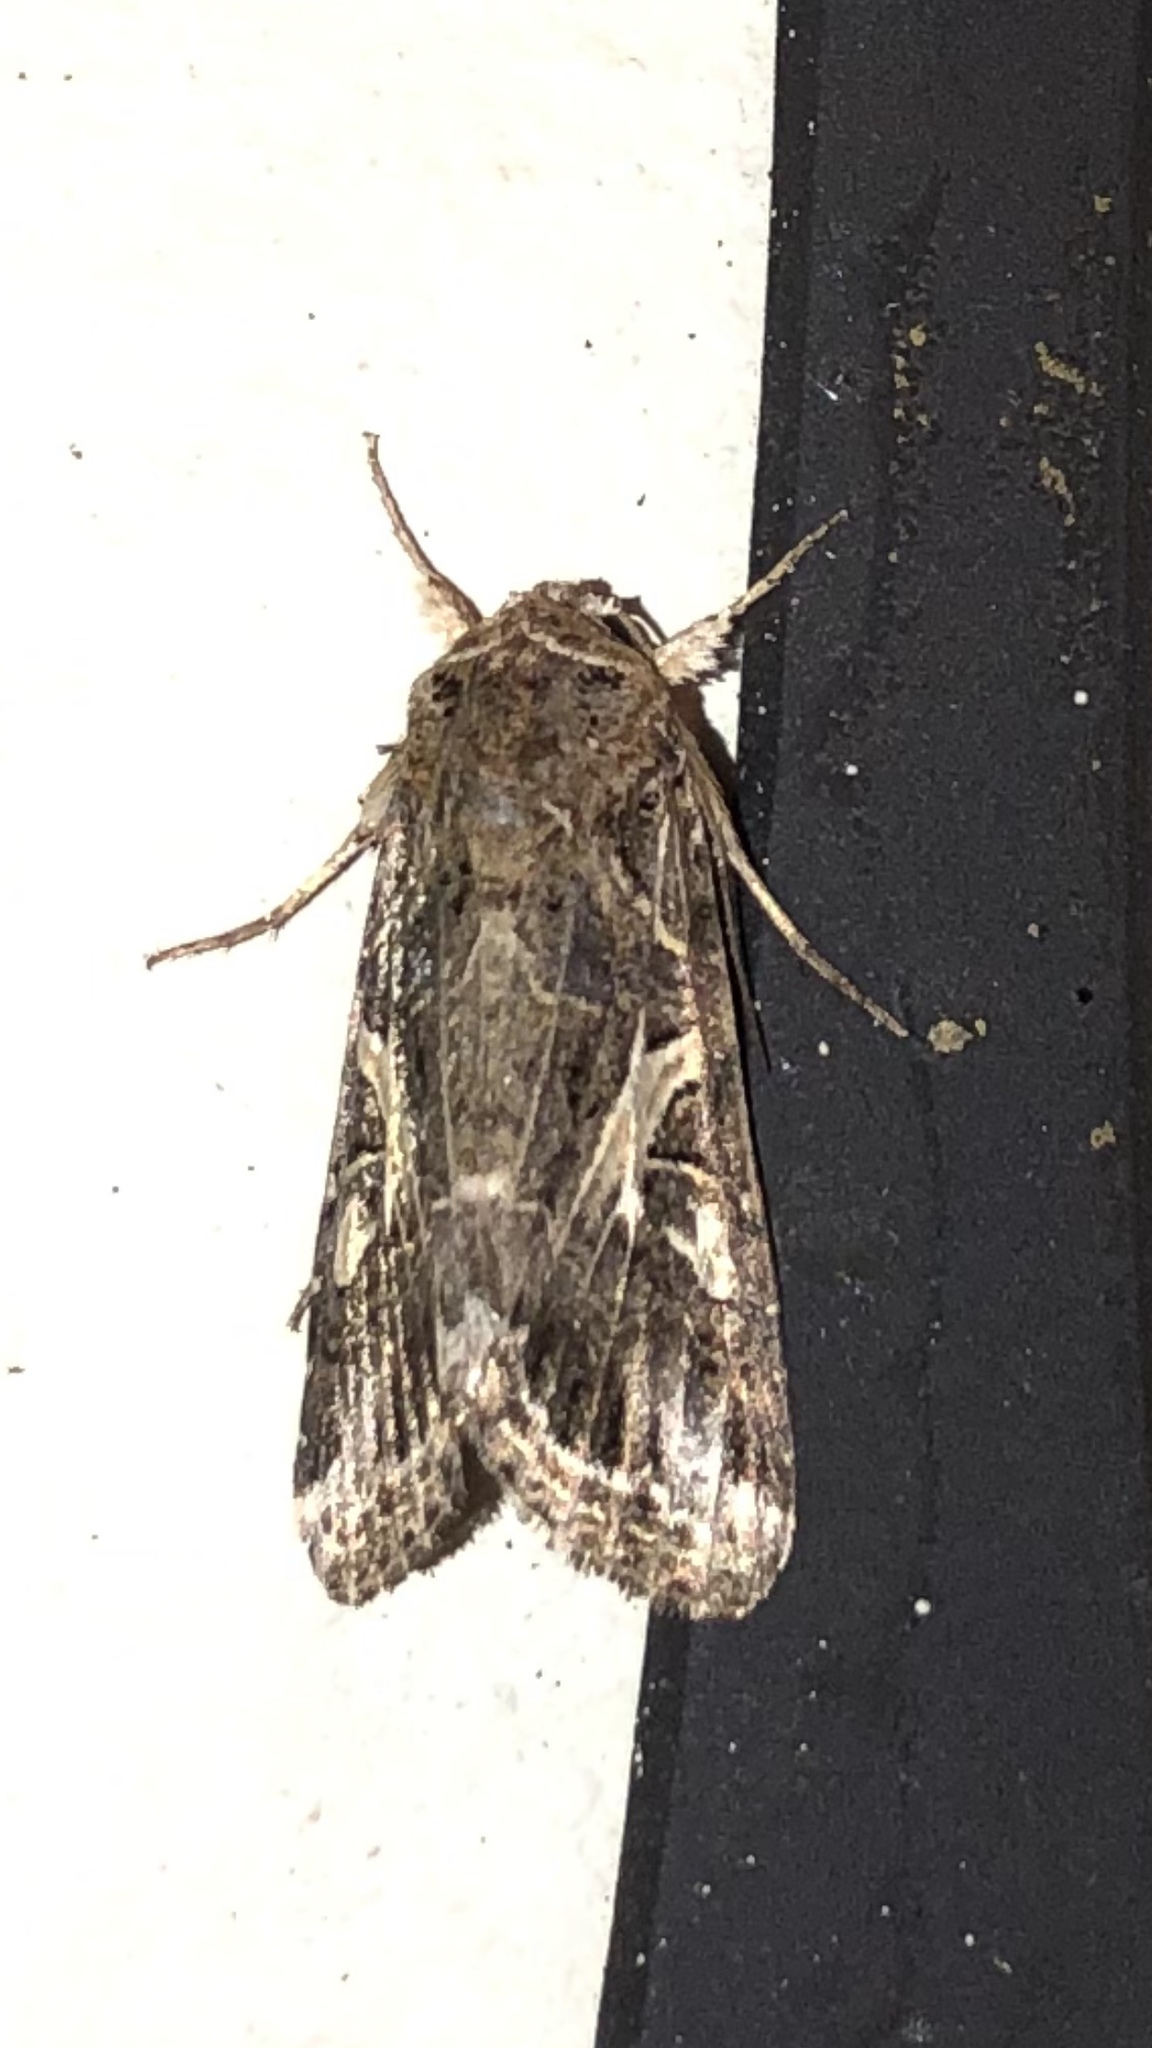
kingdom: Animalia
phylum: Arthropoda
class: Insecta
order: Lepidoptera
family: Noctuidae
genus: Spodoptera
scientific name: Spodoptera ornithogalli
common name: Yellow-striped armyworm
